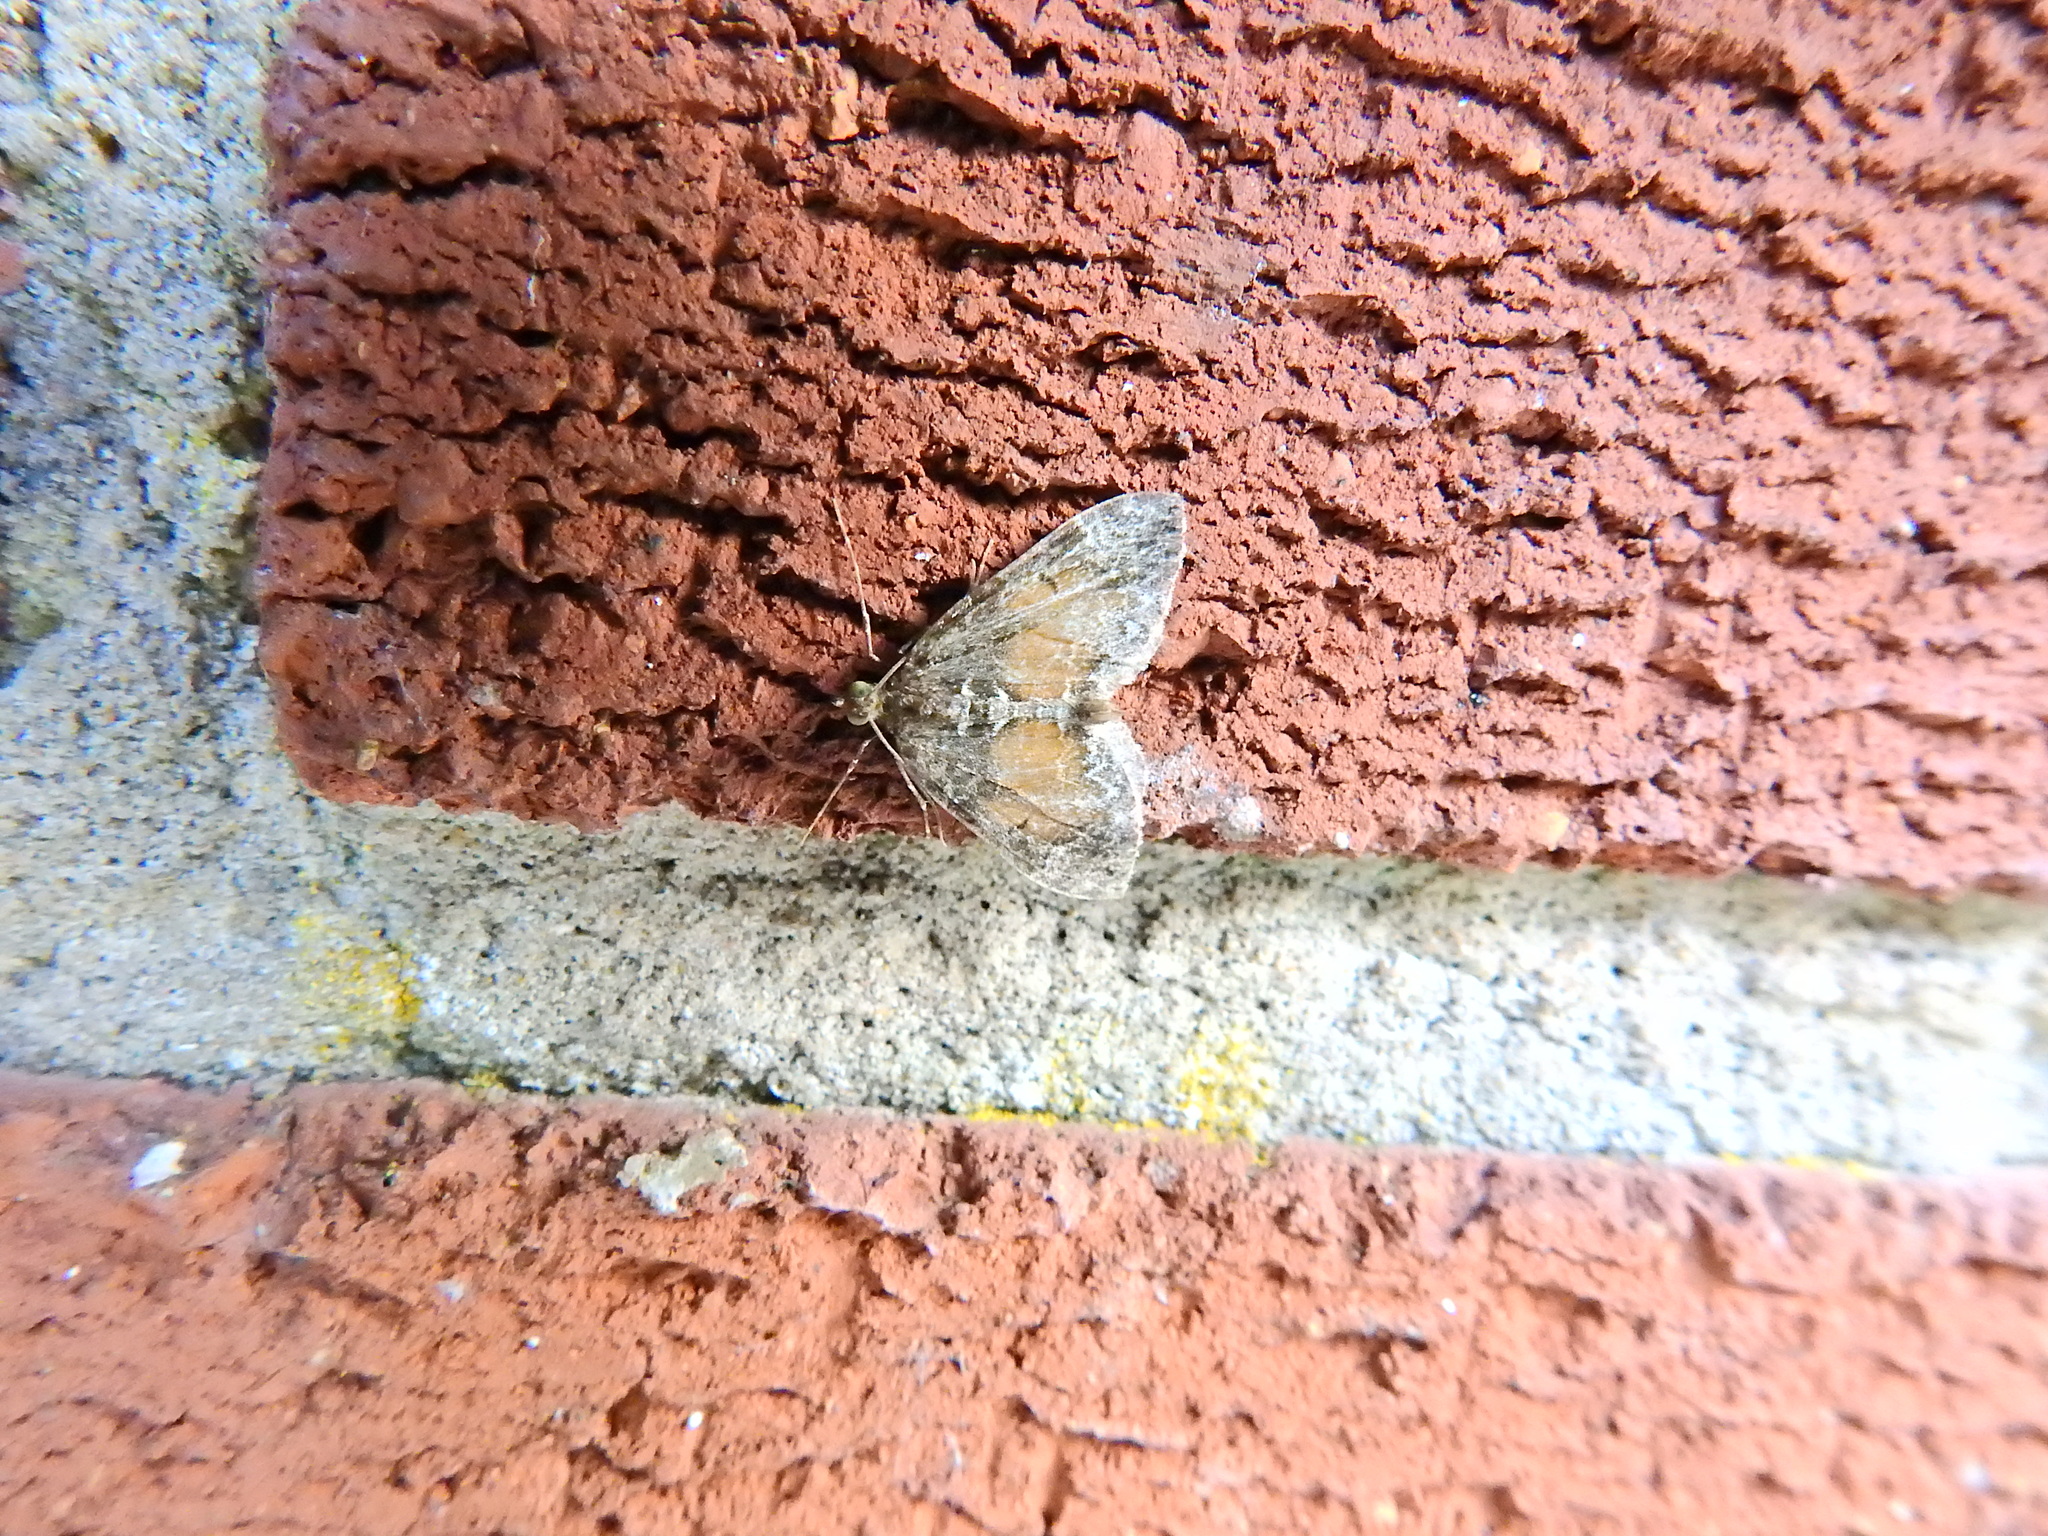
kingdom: Animalia
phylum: Arthropoda
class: Insecta
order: Lepidoptera
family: Geometridae
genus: Dysstroma
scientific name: Dysstroma truncata
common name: Common marbled carpet
